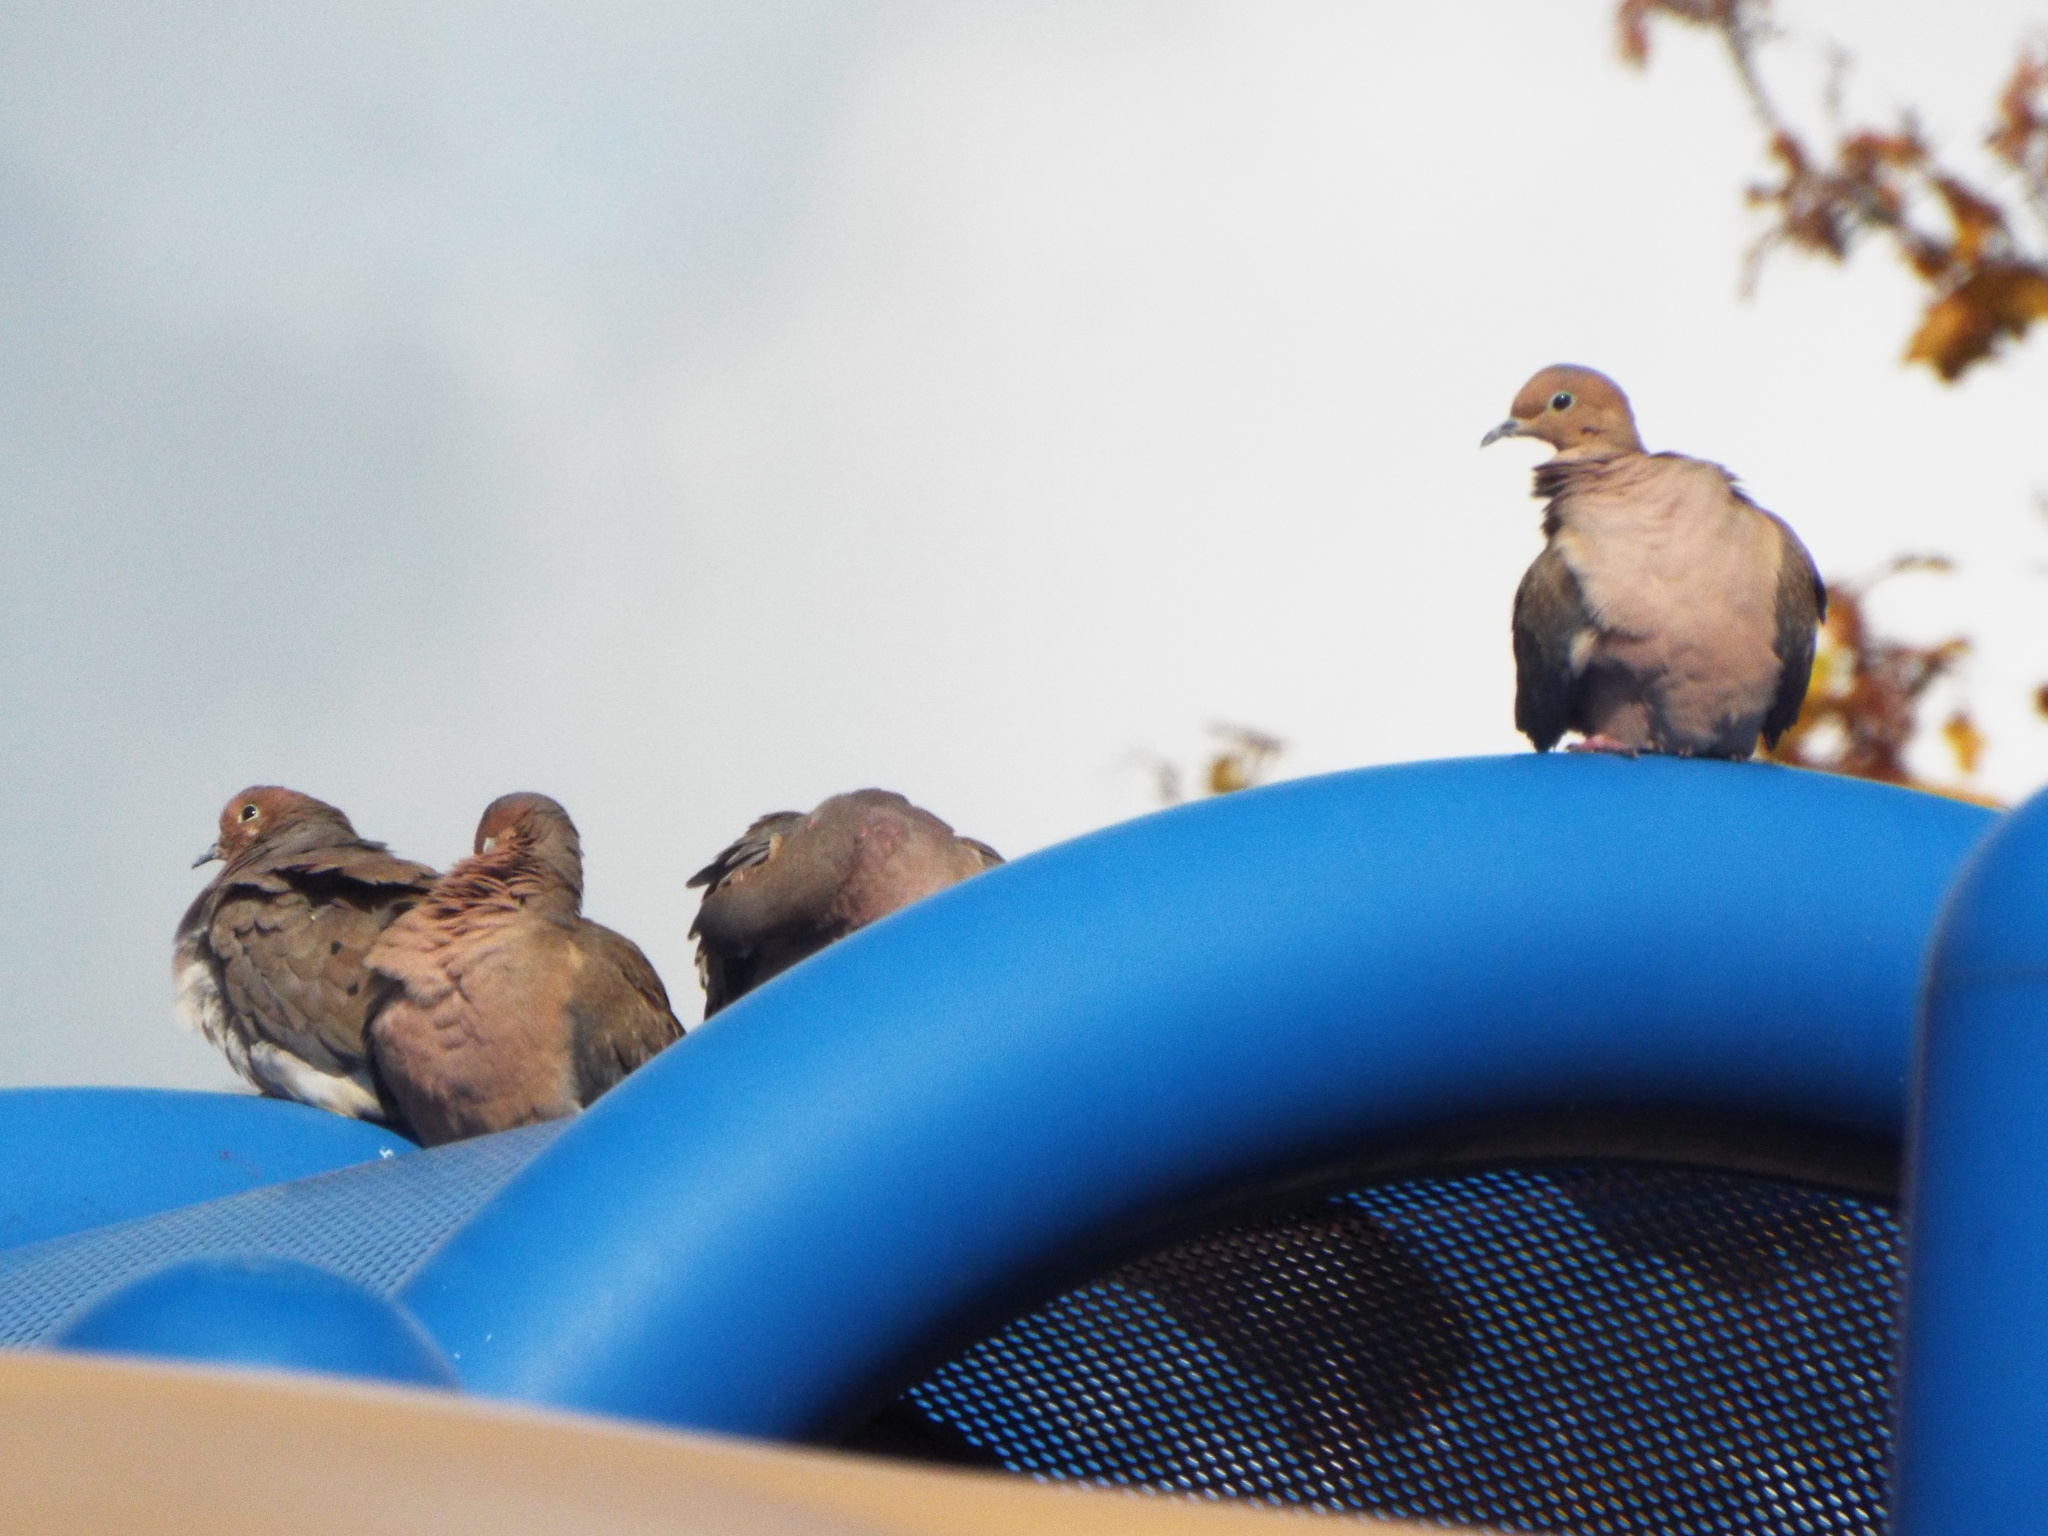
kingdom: Animalia
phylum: Chordata
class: Aves
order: Columbiformes
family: Columbidae
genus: Zenaida
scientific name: Zenaida macroura
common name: Mourning dove
